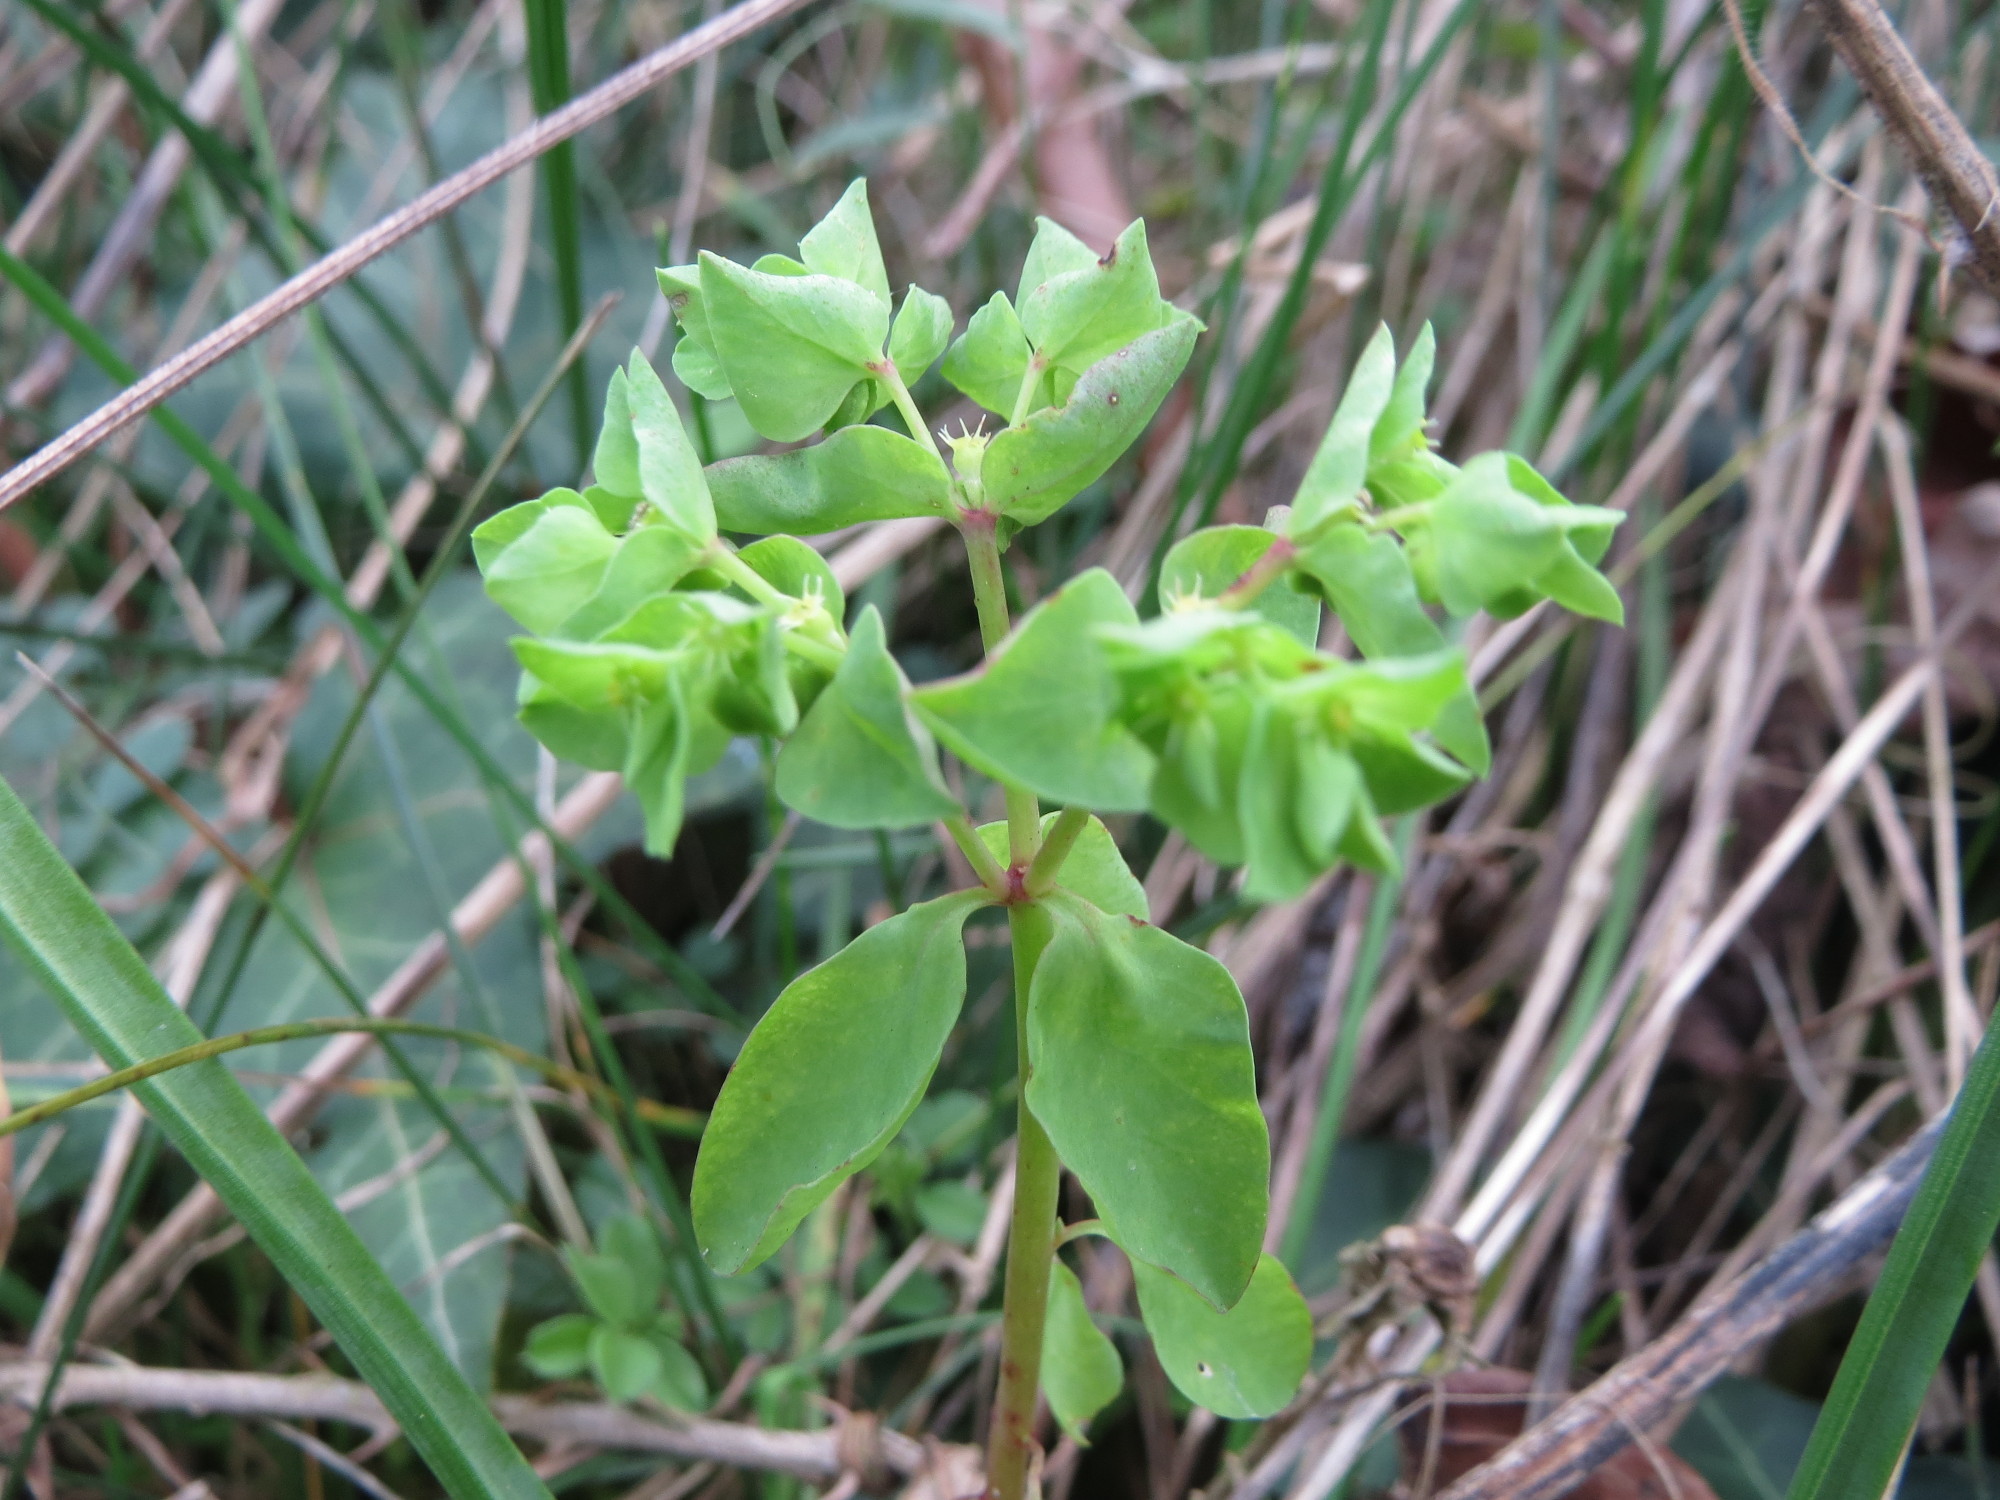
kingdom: Plantae
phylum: Tracheophyta
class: Magnoliopsida
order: Malpighiales
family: Euphorbiaceae
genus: Euphorbia
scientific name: Euphorbia peplus
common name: Petty spurge
